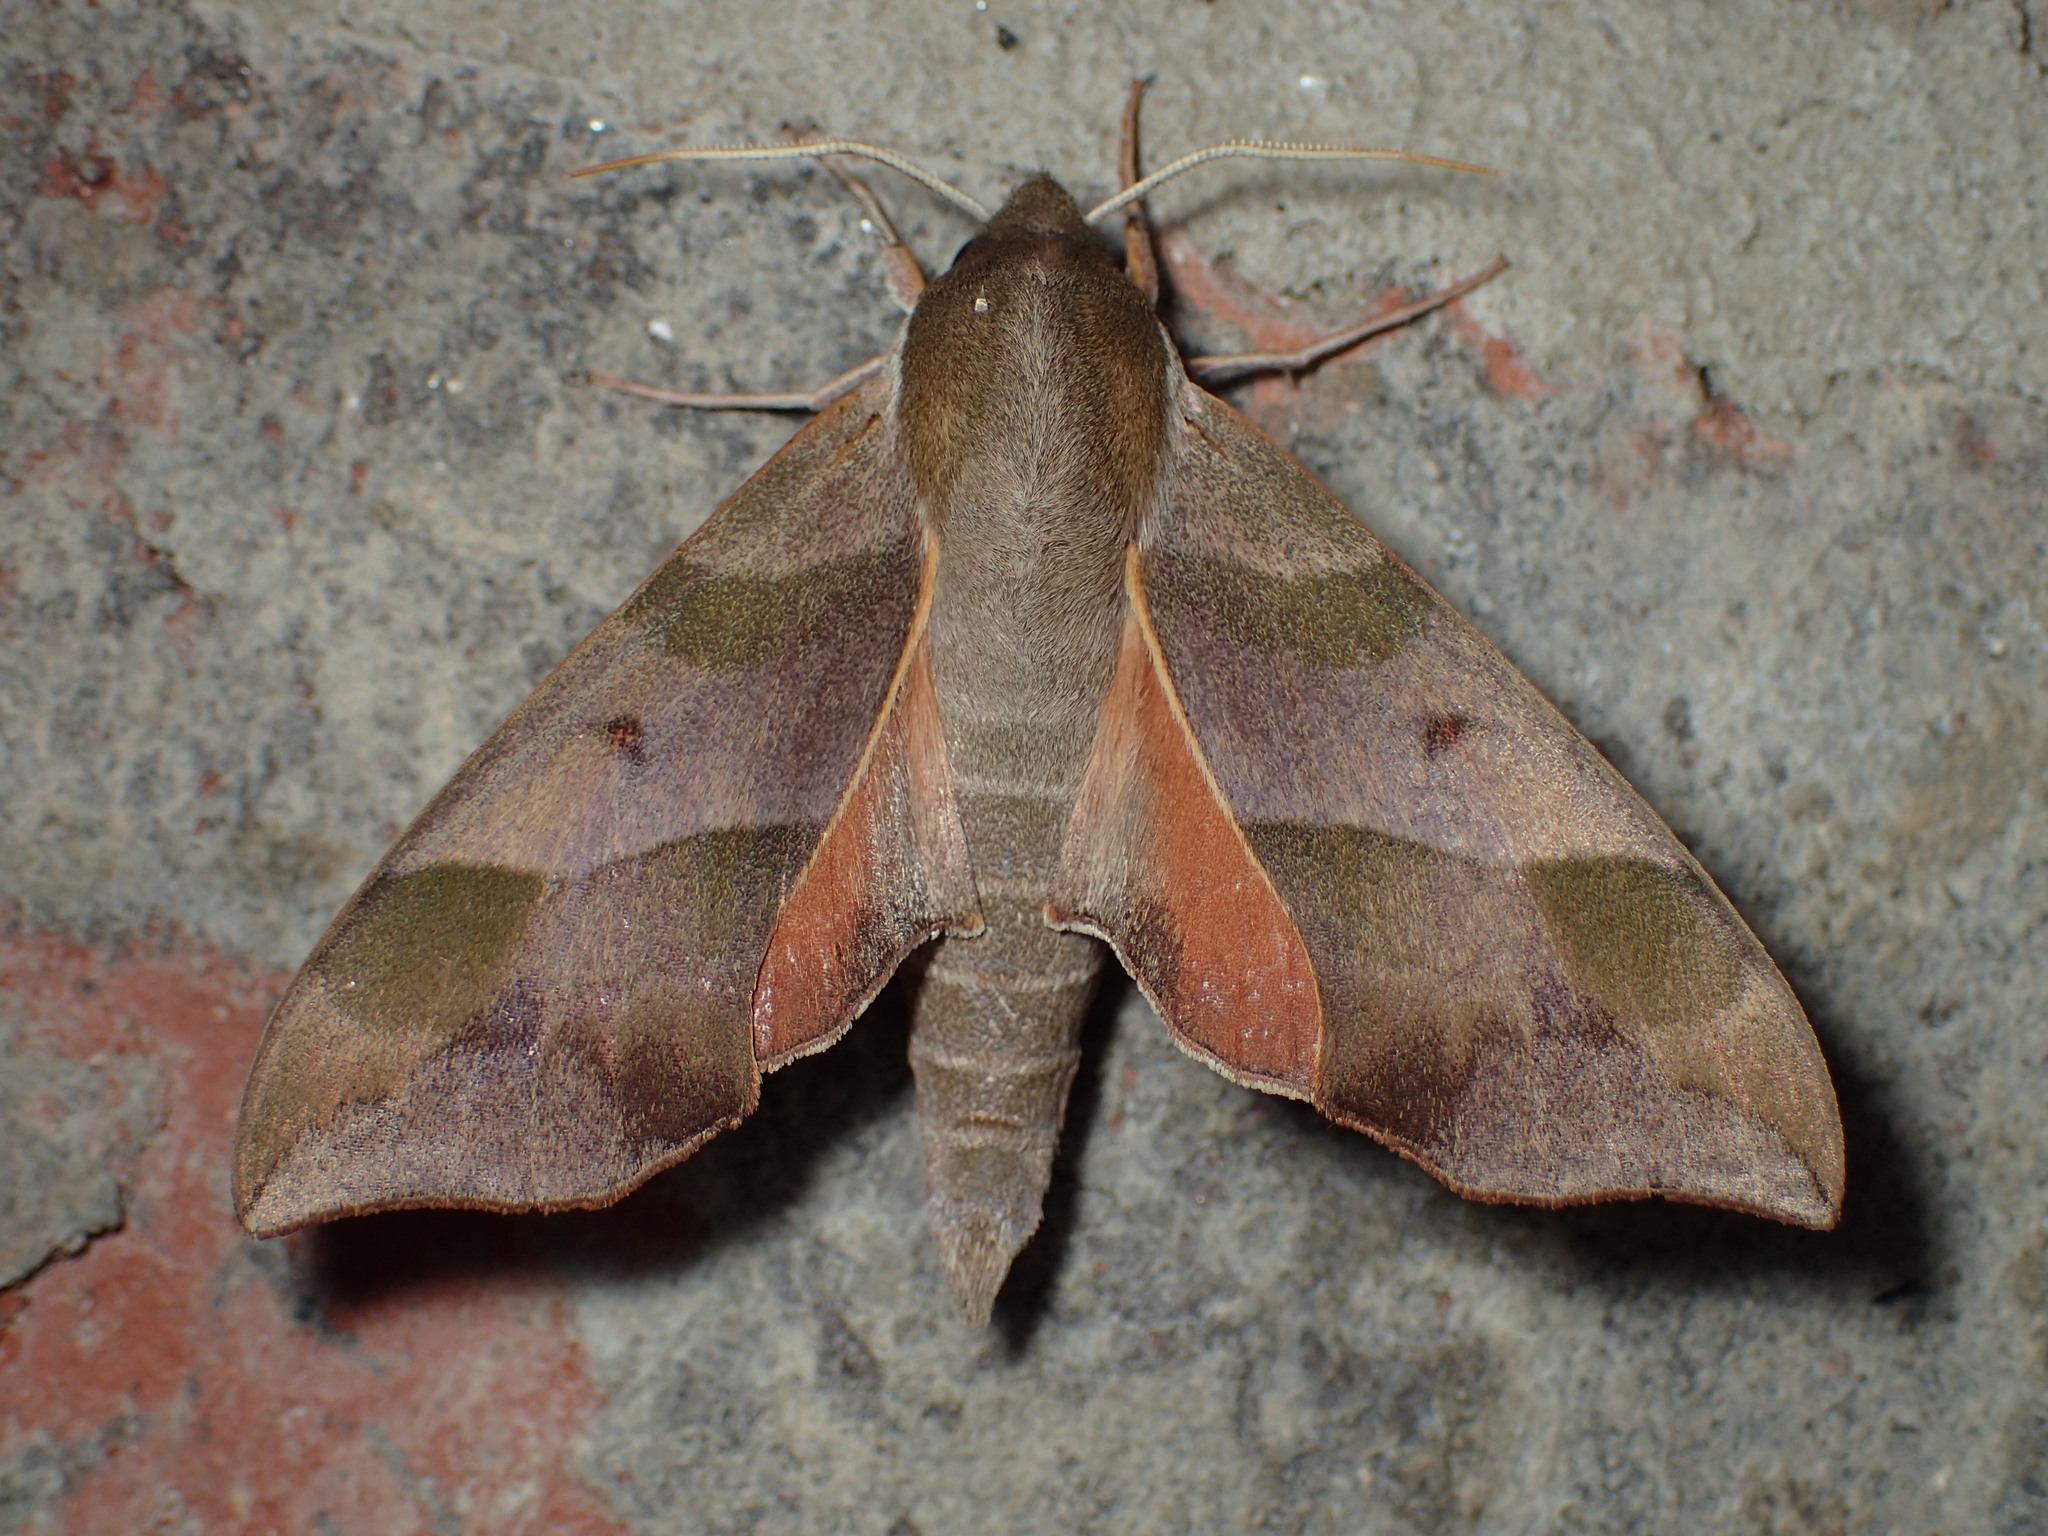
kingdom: Animalia
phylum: Arthropoda
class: Insecta
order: Lepidoptera
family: Sphingidae
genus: Darapsa
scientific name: Darapsa myron
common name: Hog sphinx
